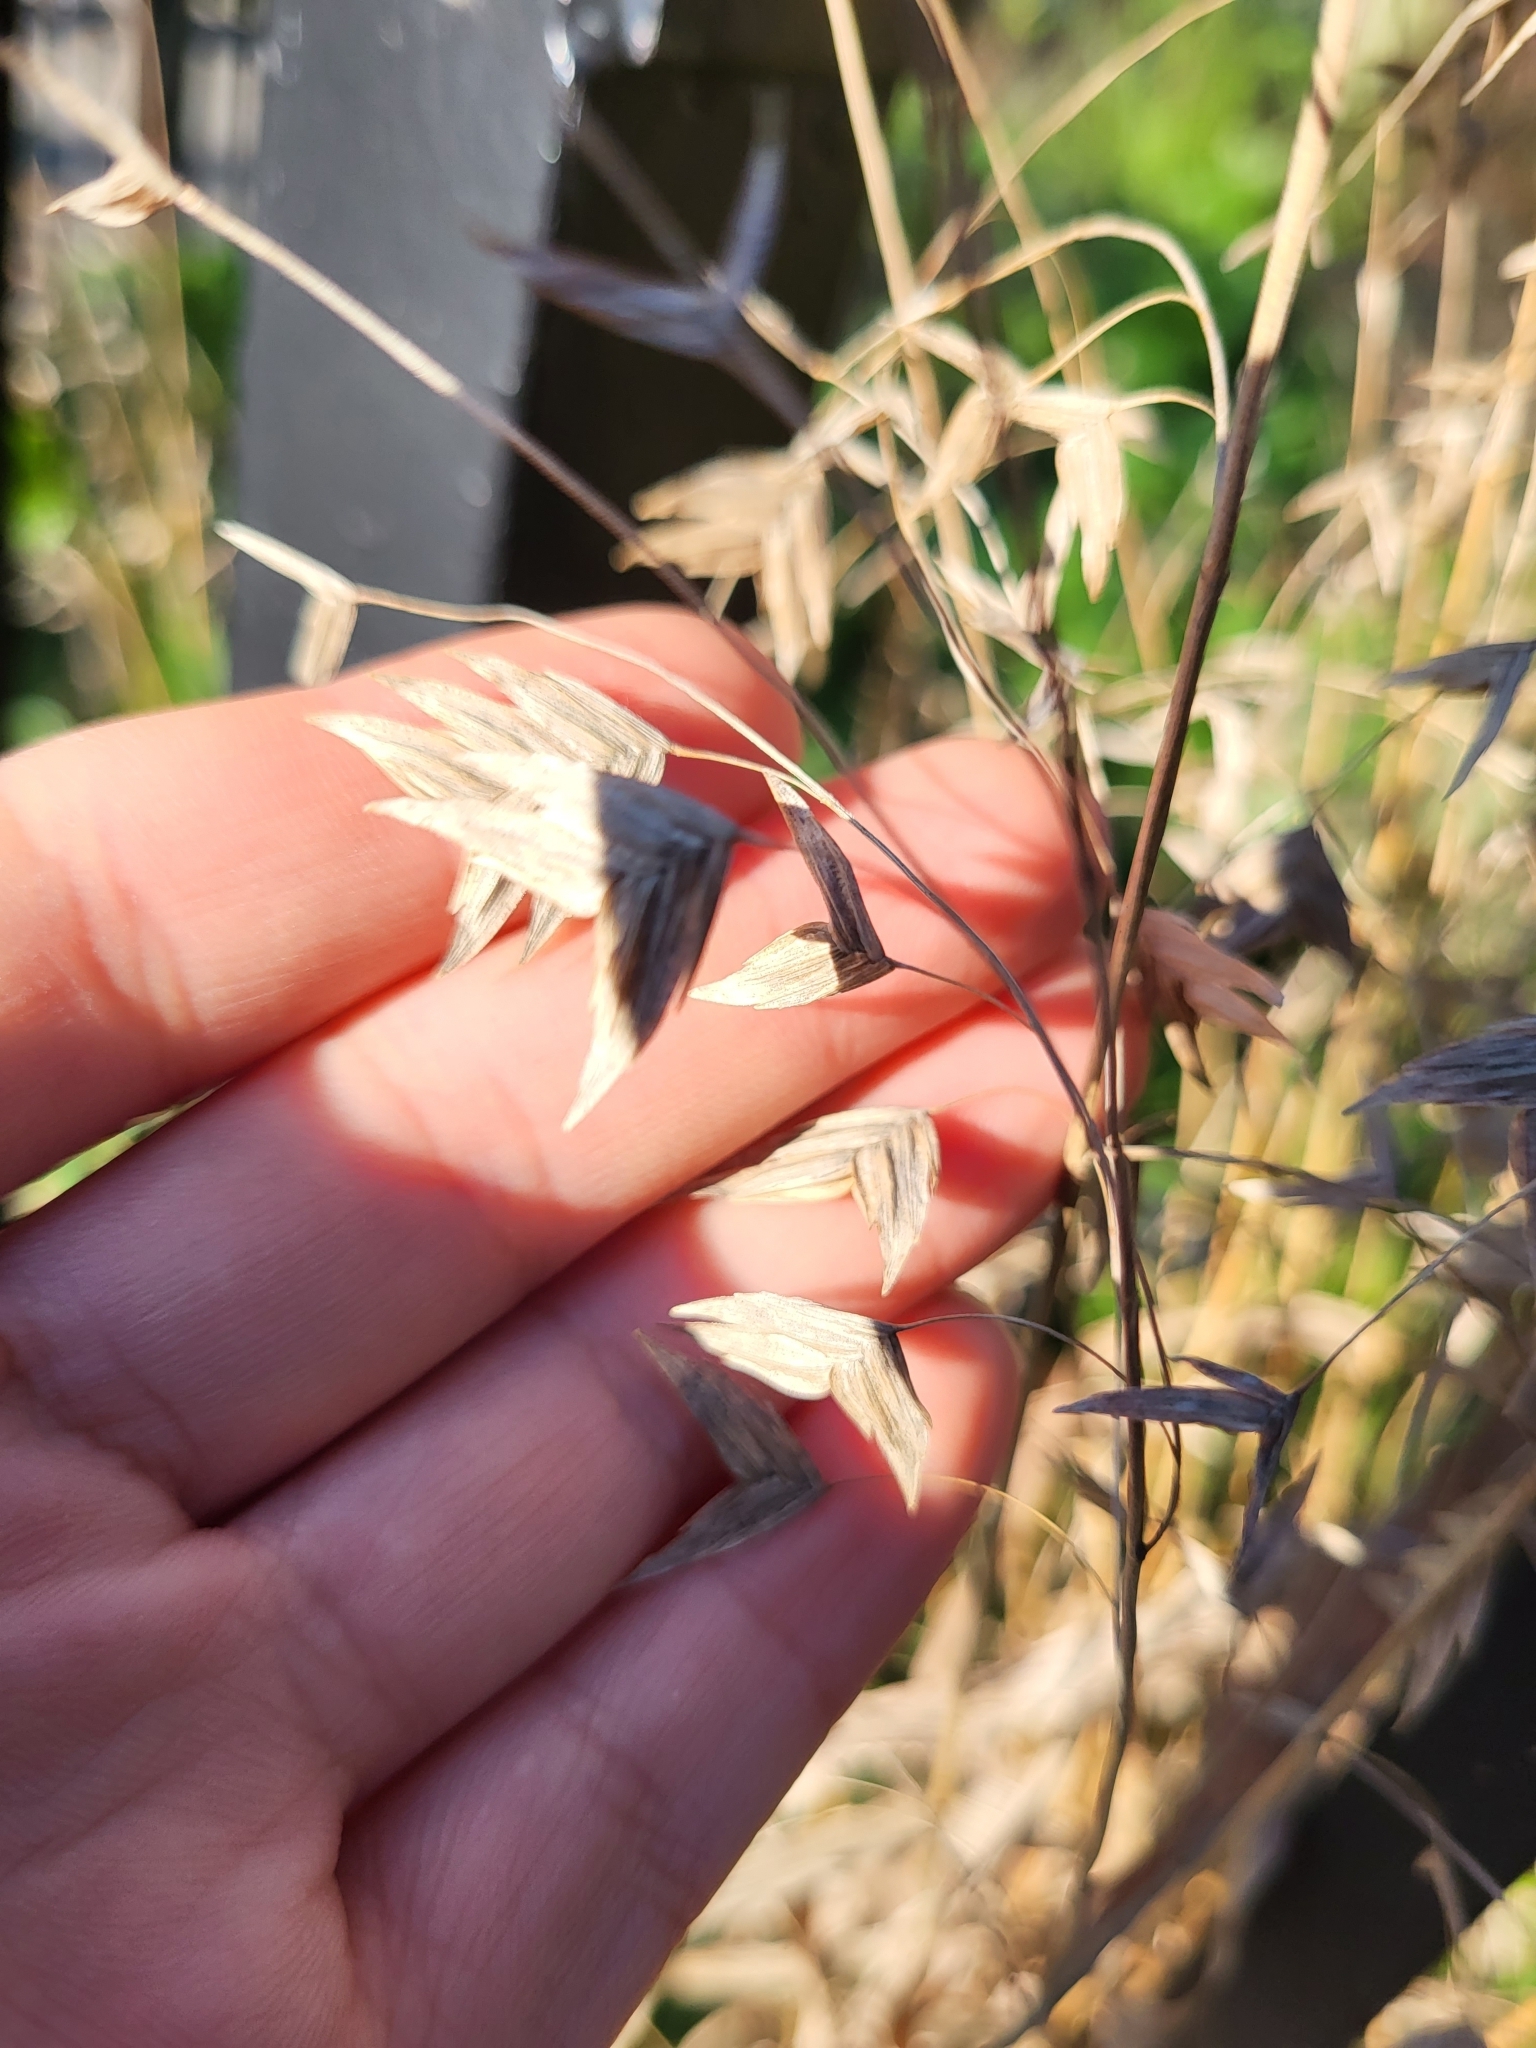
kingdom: Plantae
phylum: Tracheophyta
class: Liliopsida
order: Poales
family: Poaceae
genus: Chasmanthium
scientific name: Chasmanthium latifolium
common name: Broad-leaved chasmanthium
